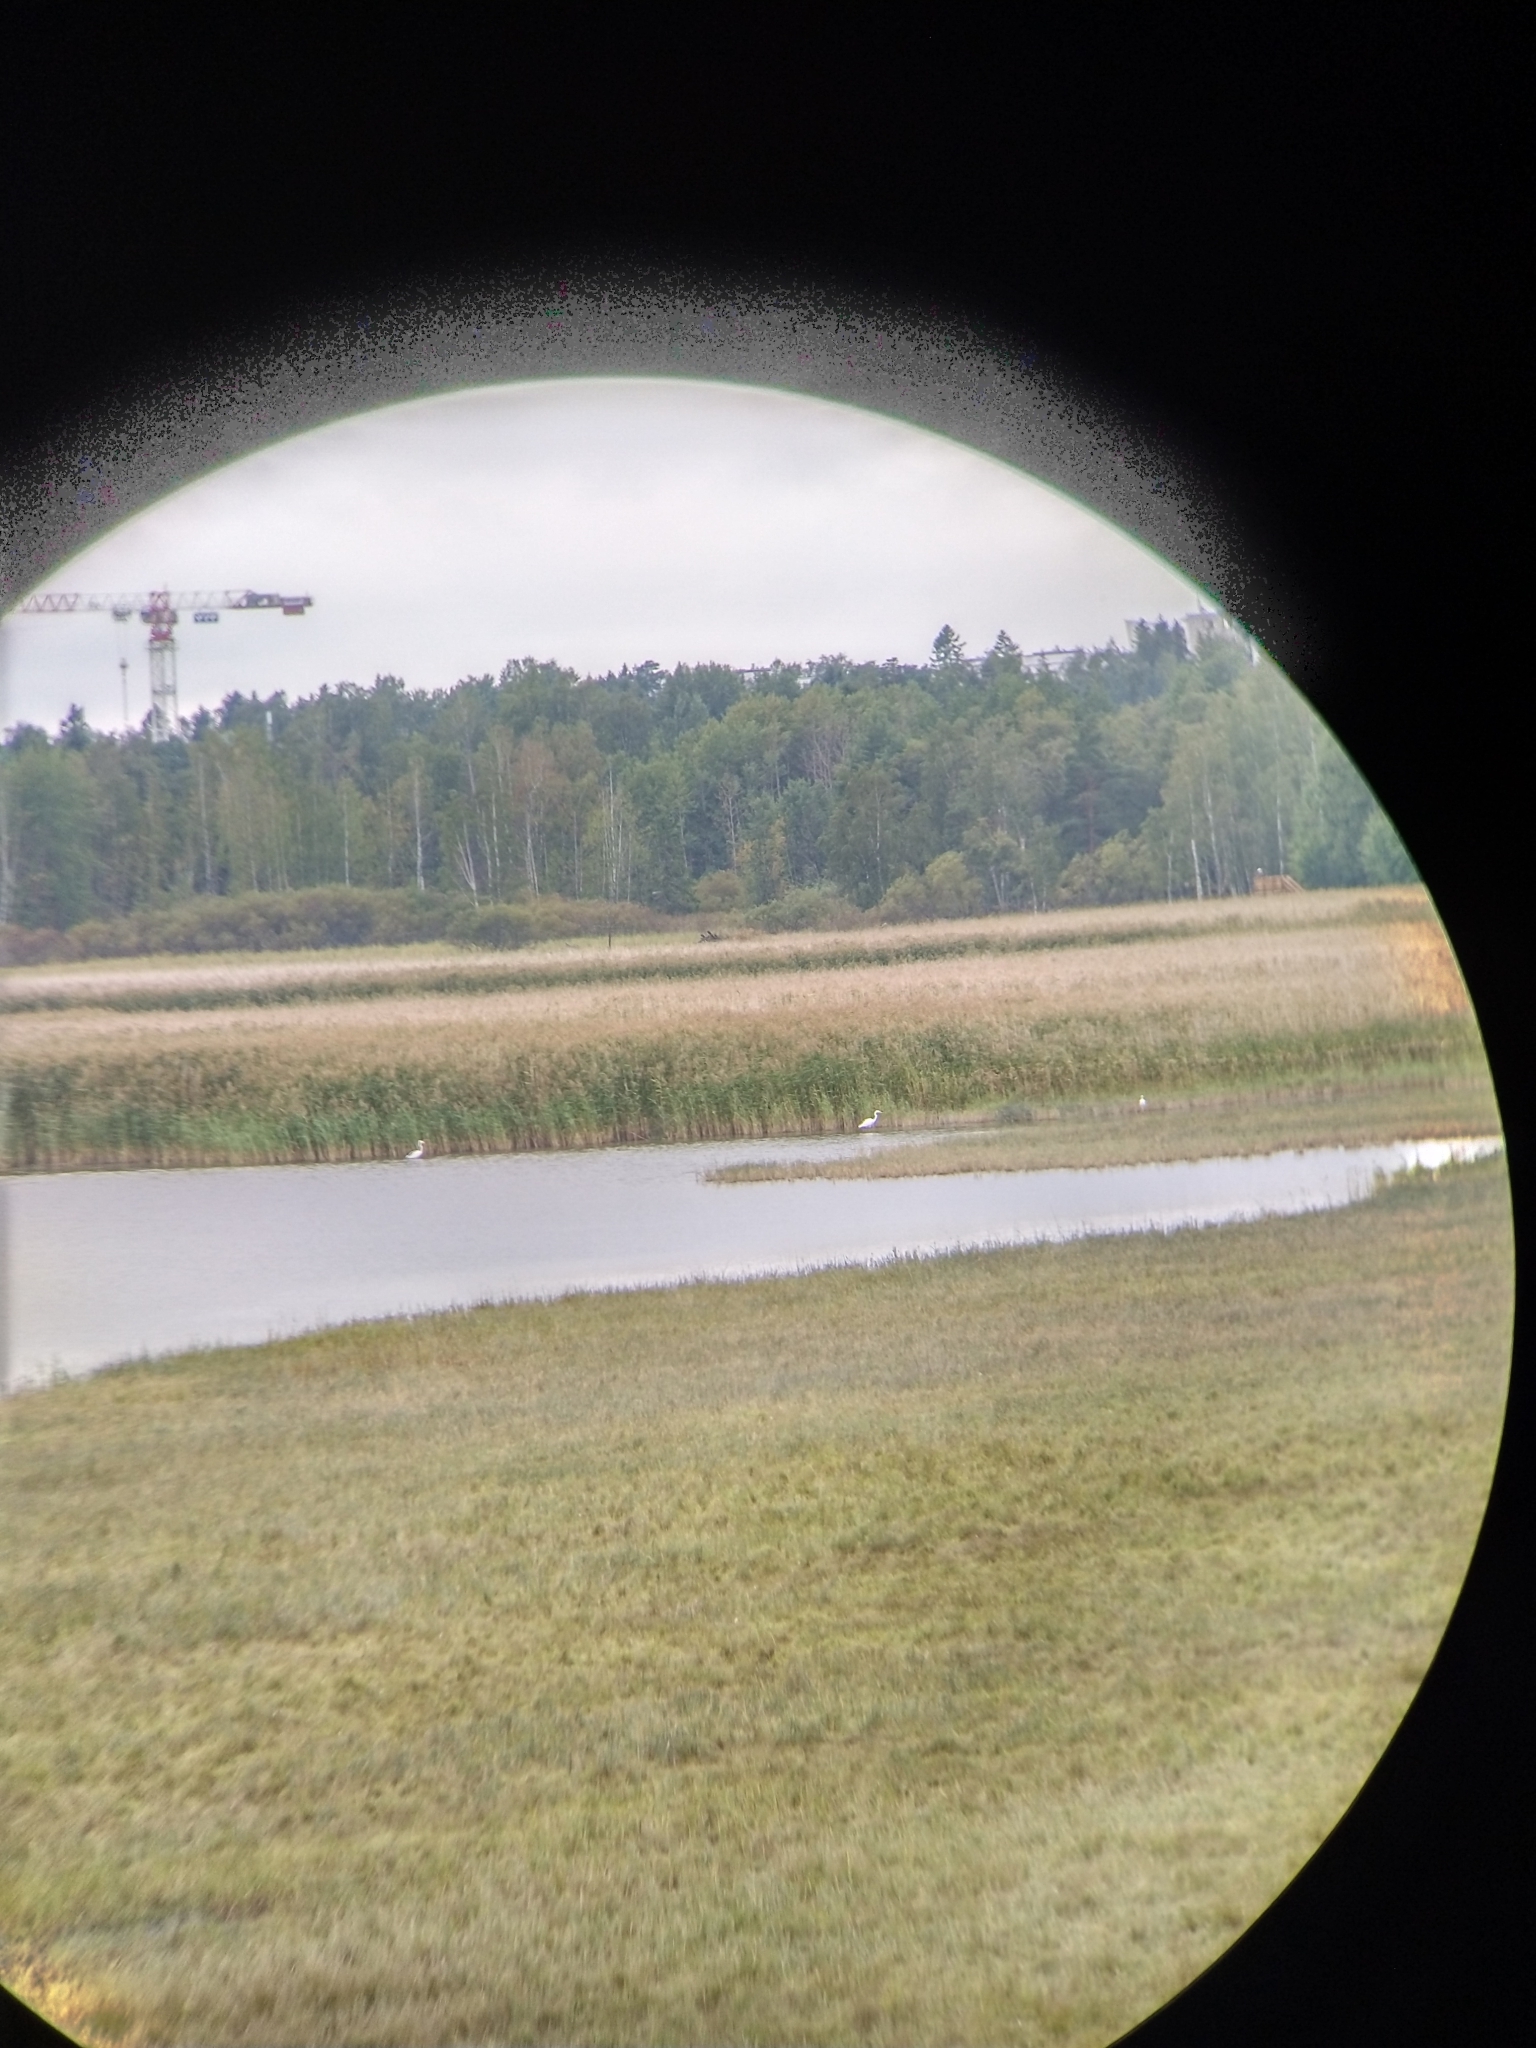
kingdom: Animalia
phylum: Chordata
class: Aves
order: Pelecaniformes
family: Ardeidae
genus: Ardea
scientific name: Ardea alba
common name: Great egret
